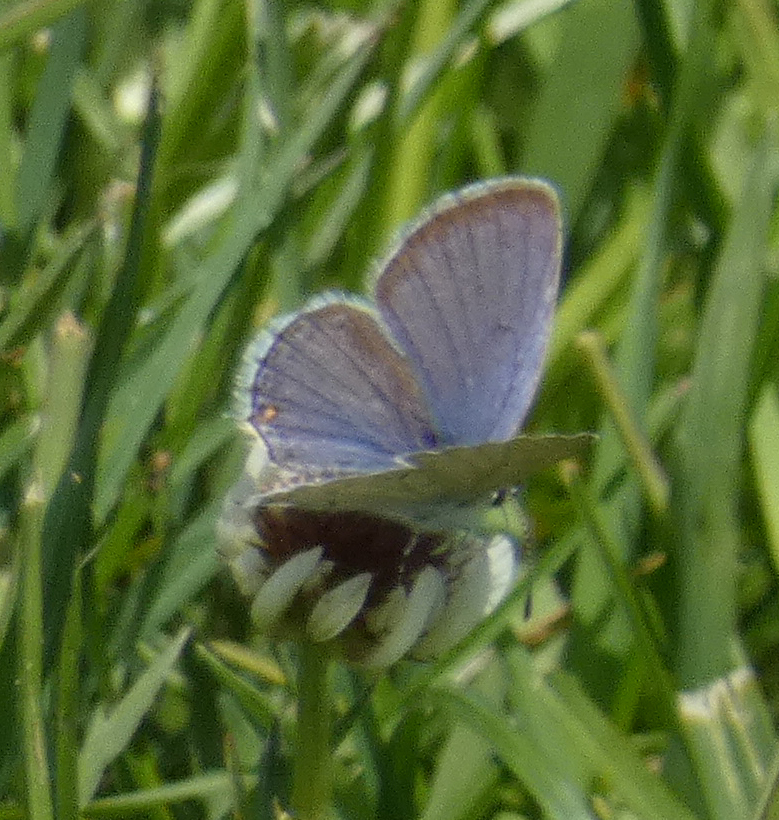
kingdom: Animalia
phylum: Arthropoda
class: Insecta
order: Lepidoptera
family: Lycaenidae
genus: Elkalyce
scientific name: Elkalyce comyntas
